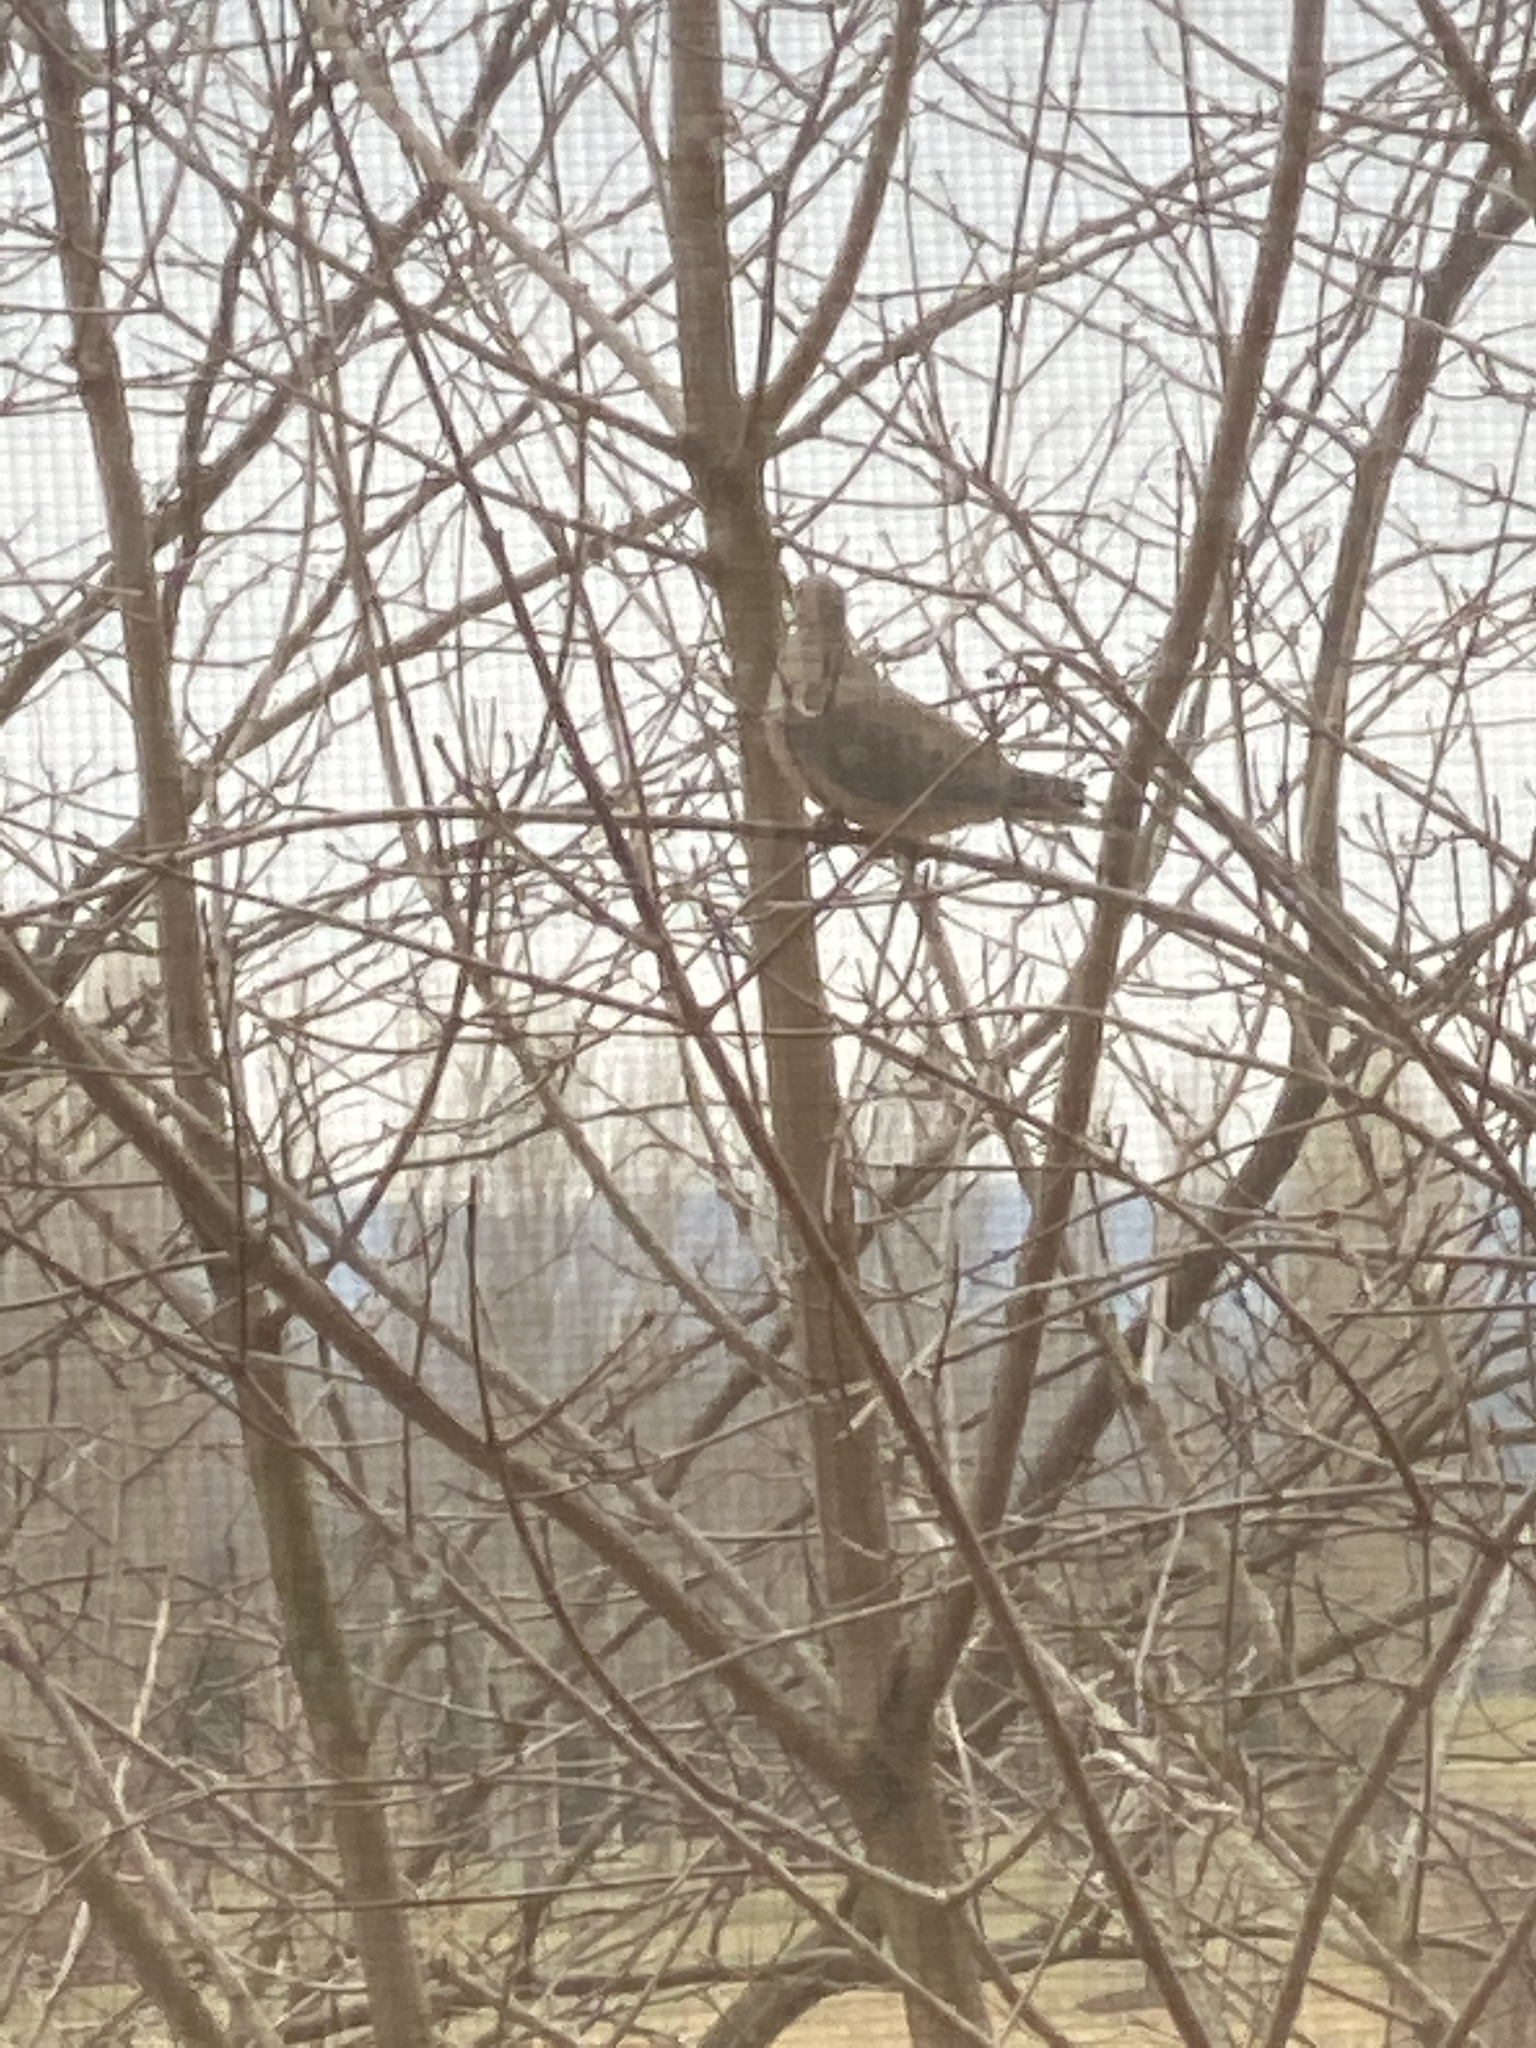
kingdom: Animalia
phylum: Chordata
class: Aves
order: Columbiformes
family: Columbidae
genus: Zenaida
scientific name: Zenaida macroura
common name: Mourning dove
